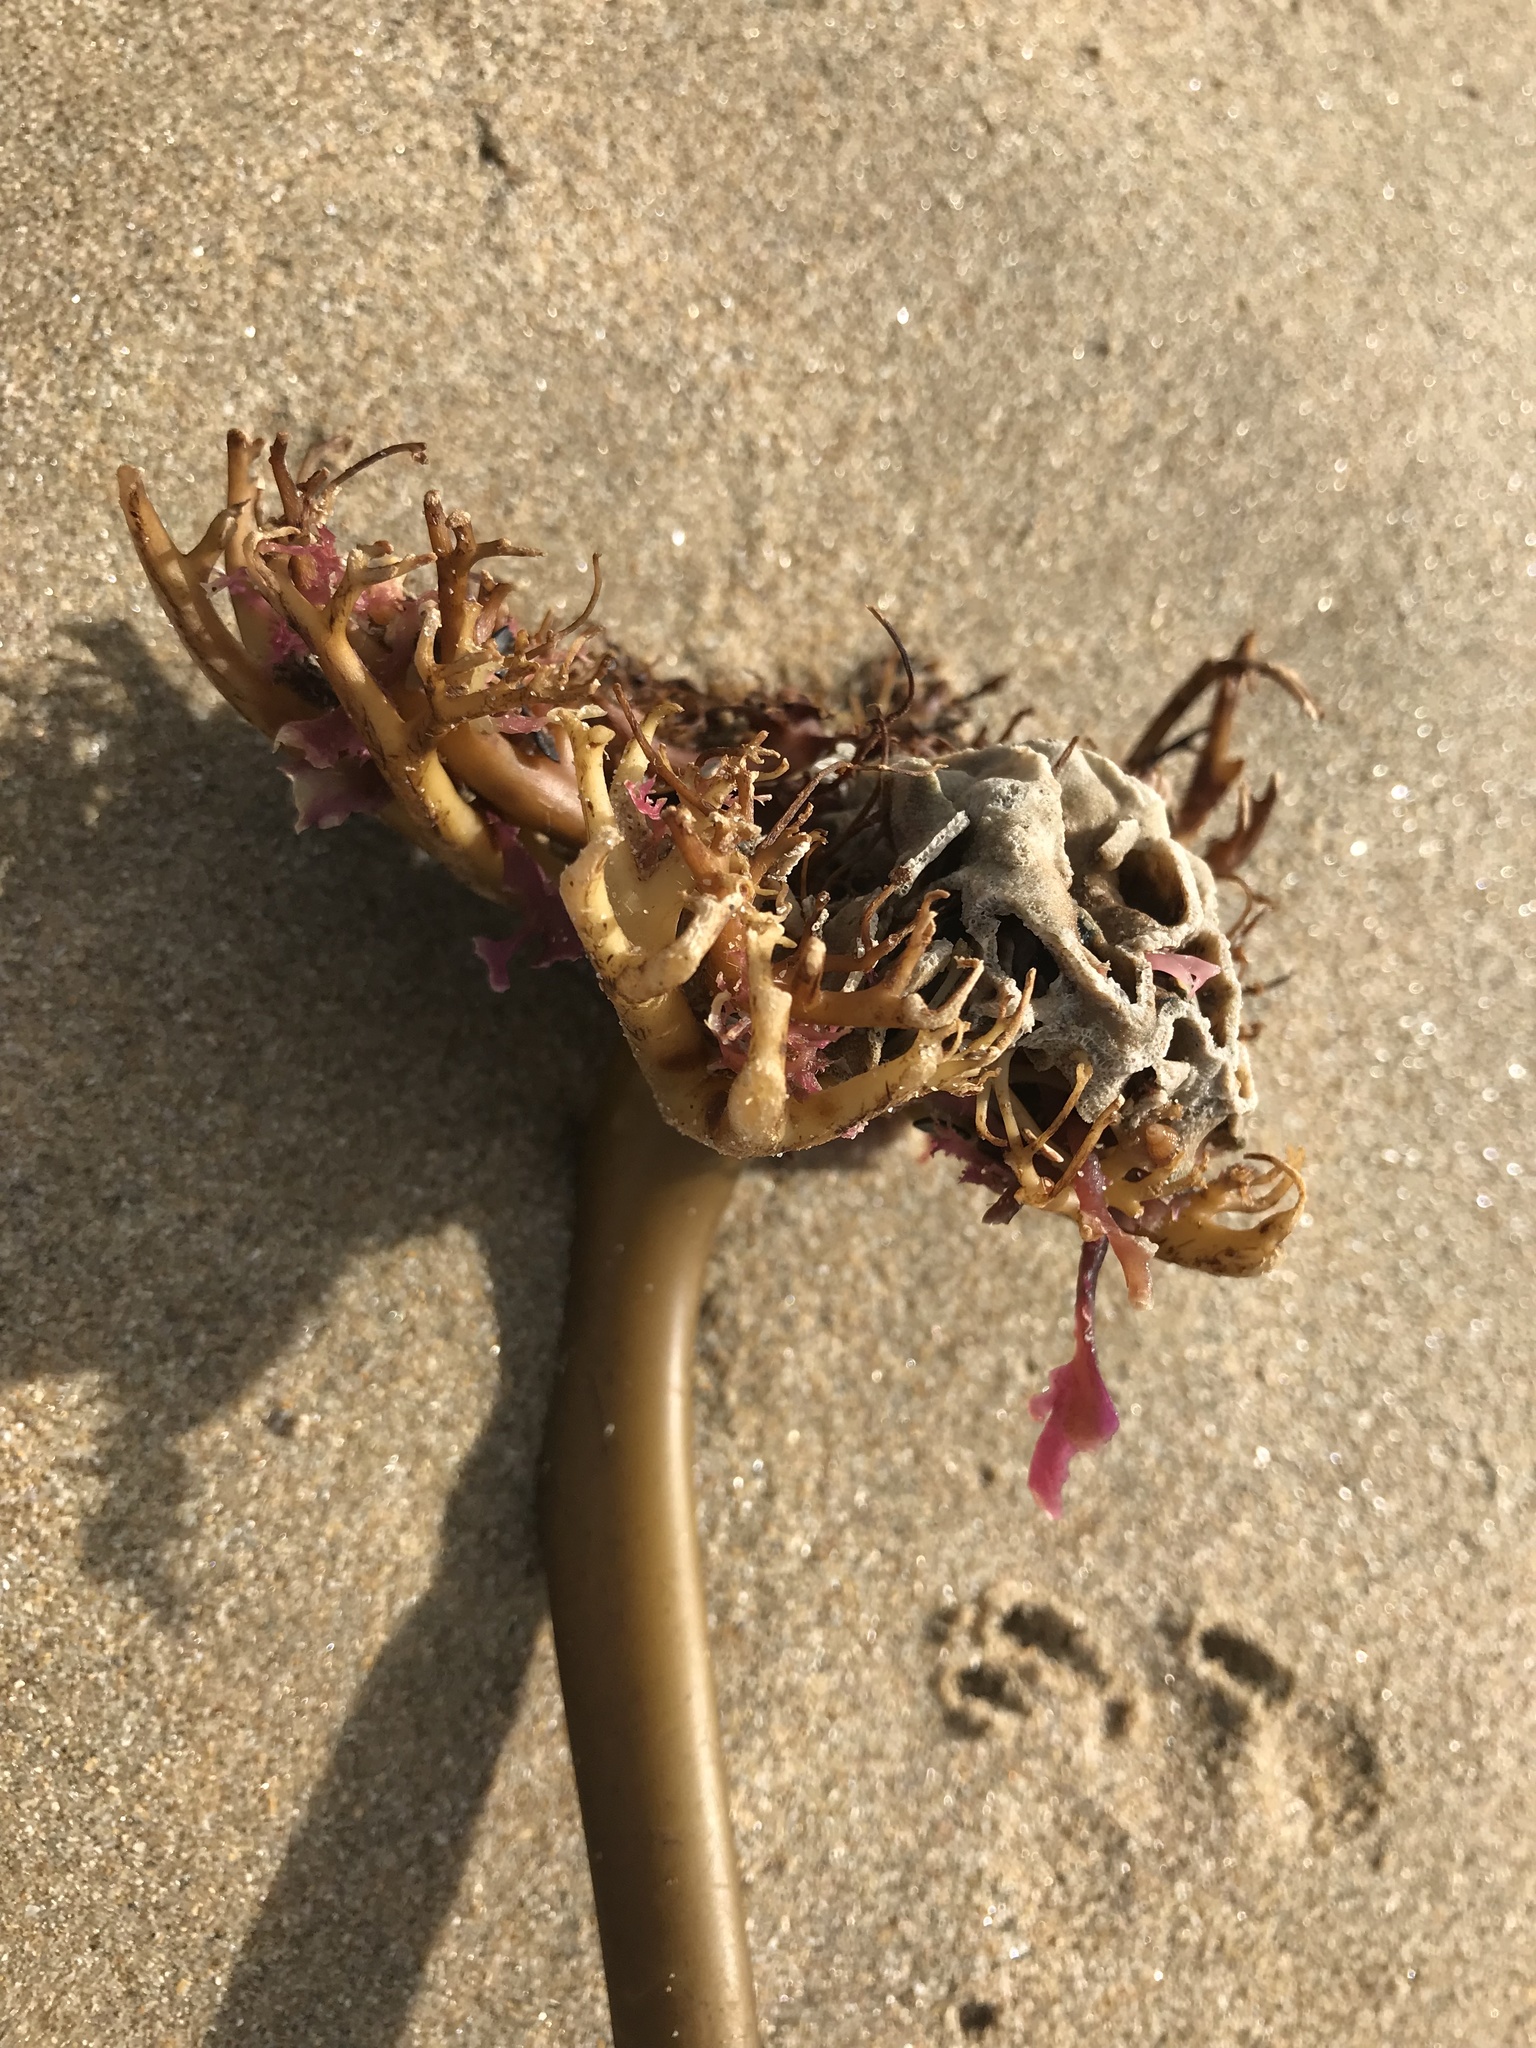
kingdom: Chromista
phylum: Ochrophyta
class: Phaeophyceae
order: Laminariales
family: Lessoniaceae
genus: Ecklonia
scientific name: Ecklonia radiata
